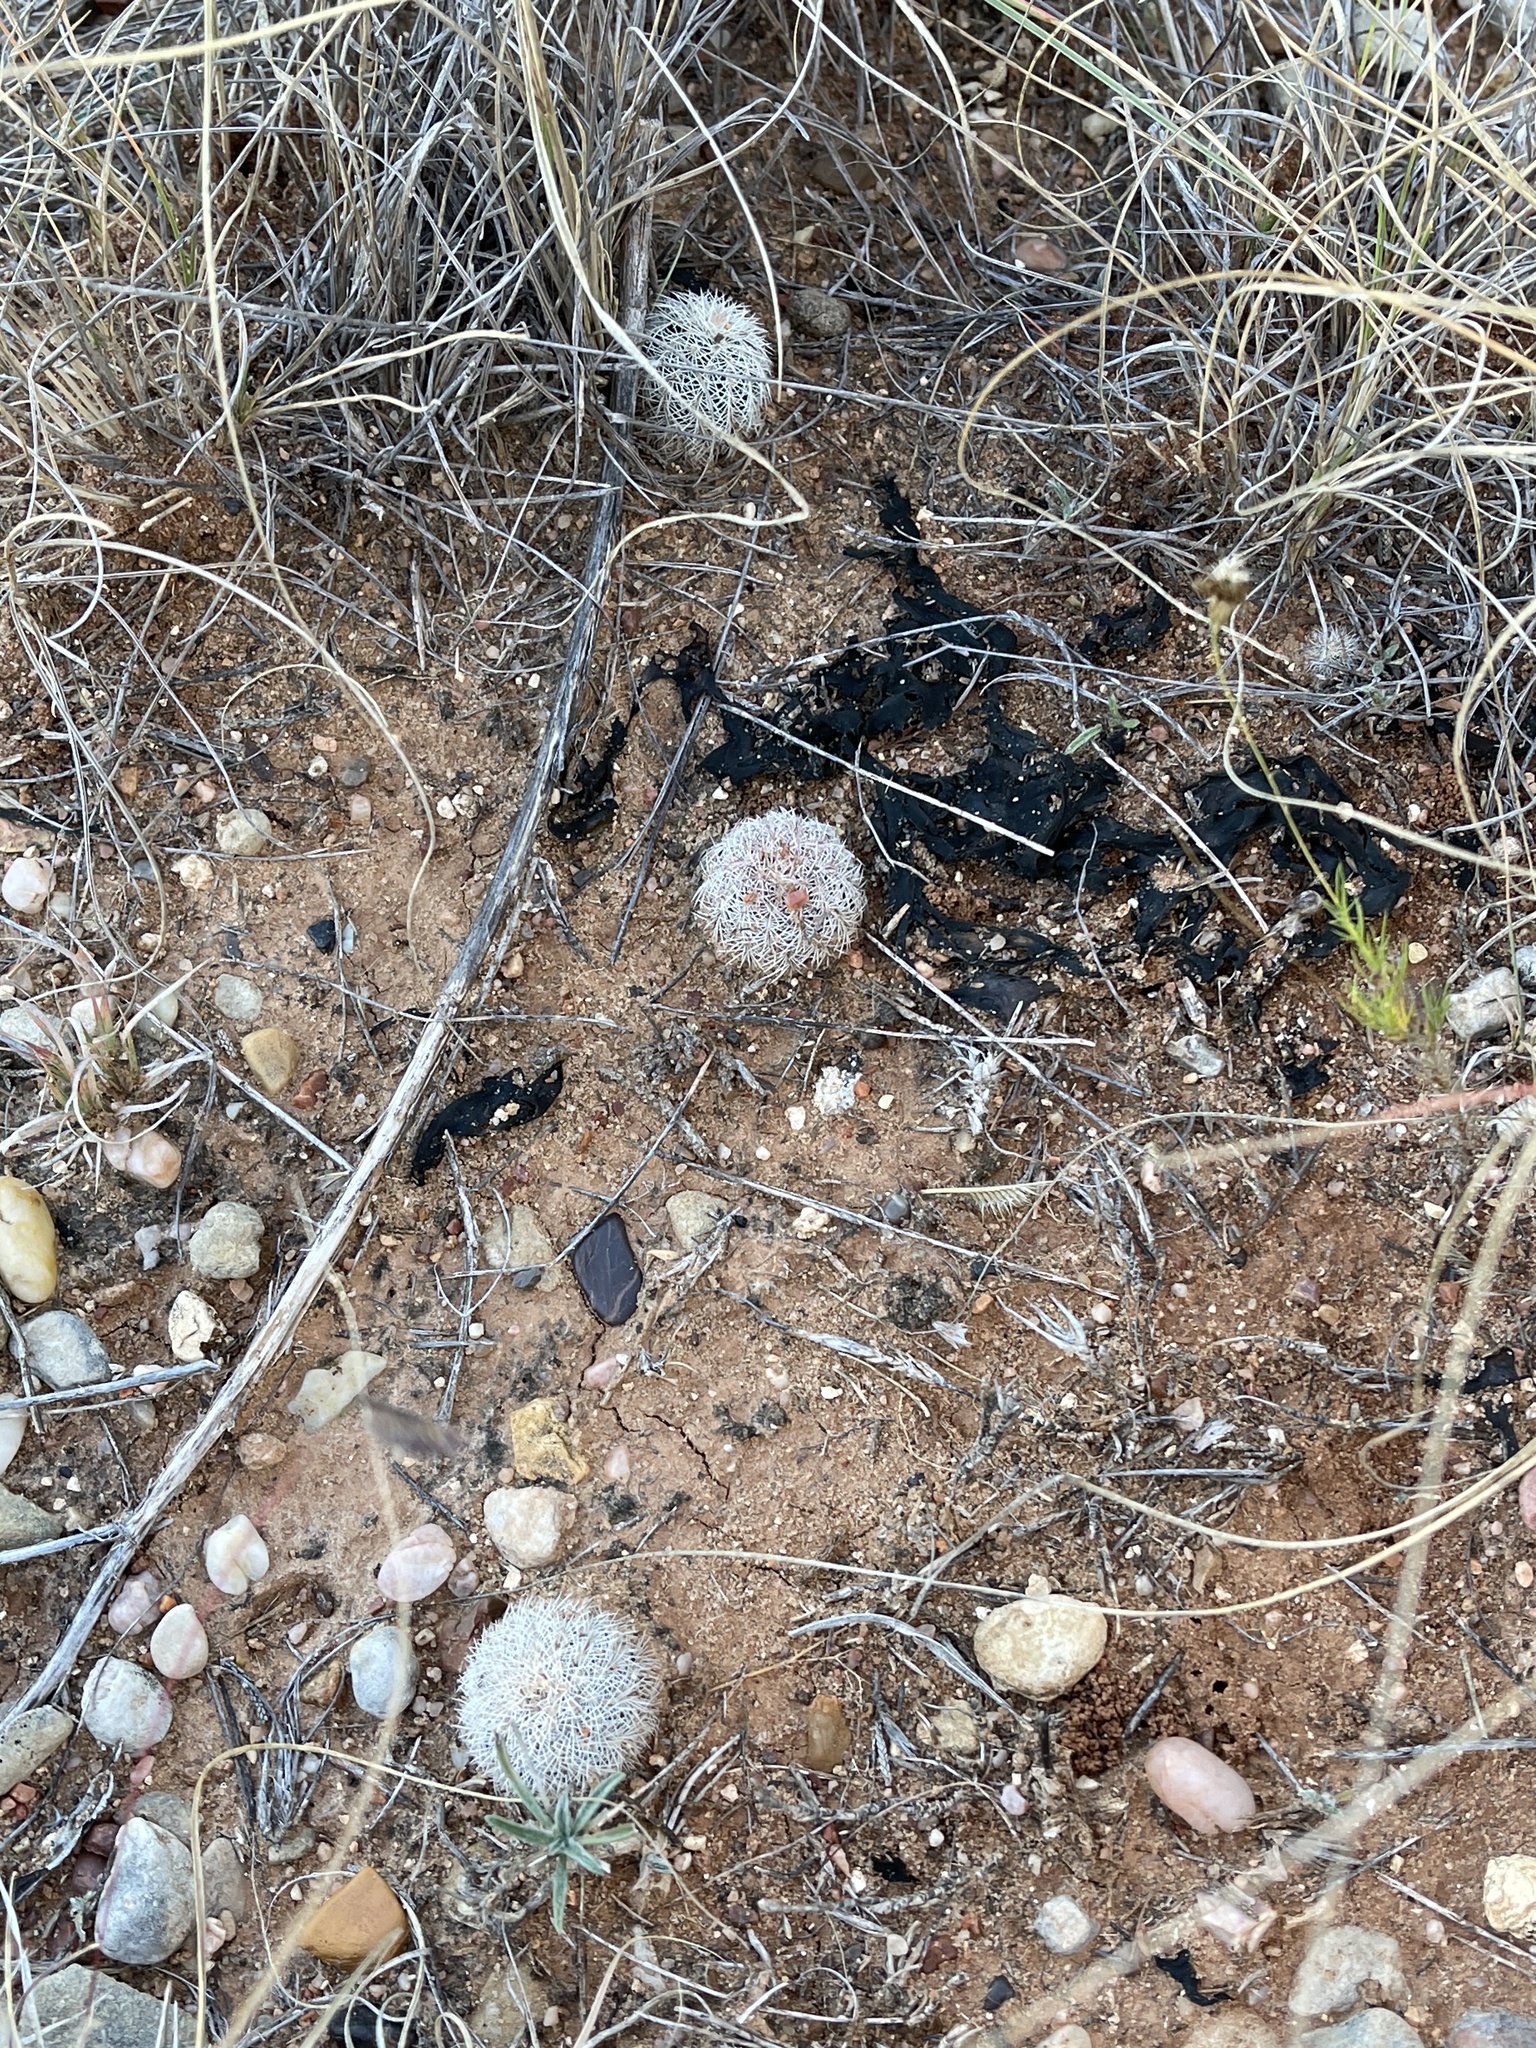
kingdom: Plantae
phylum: Tracheophyta
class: Magnoliopsida
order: Caryophyllales
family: Cactaceae
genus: Echinocereus
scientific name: Echinocereus reichenbachii
